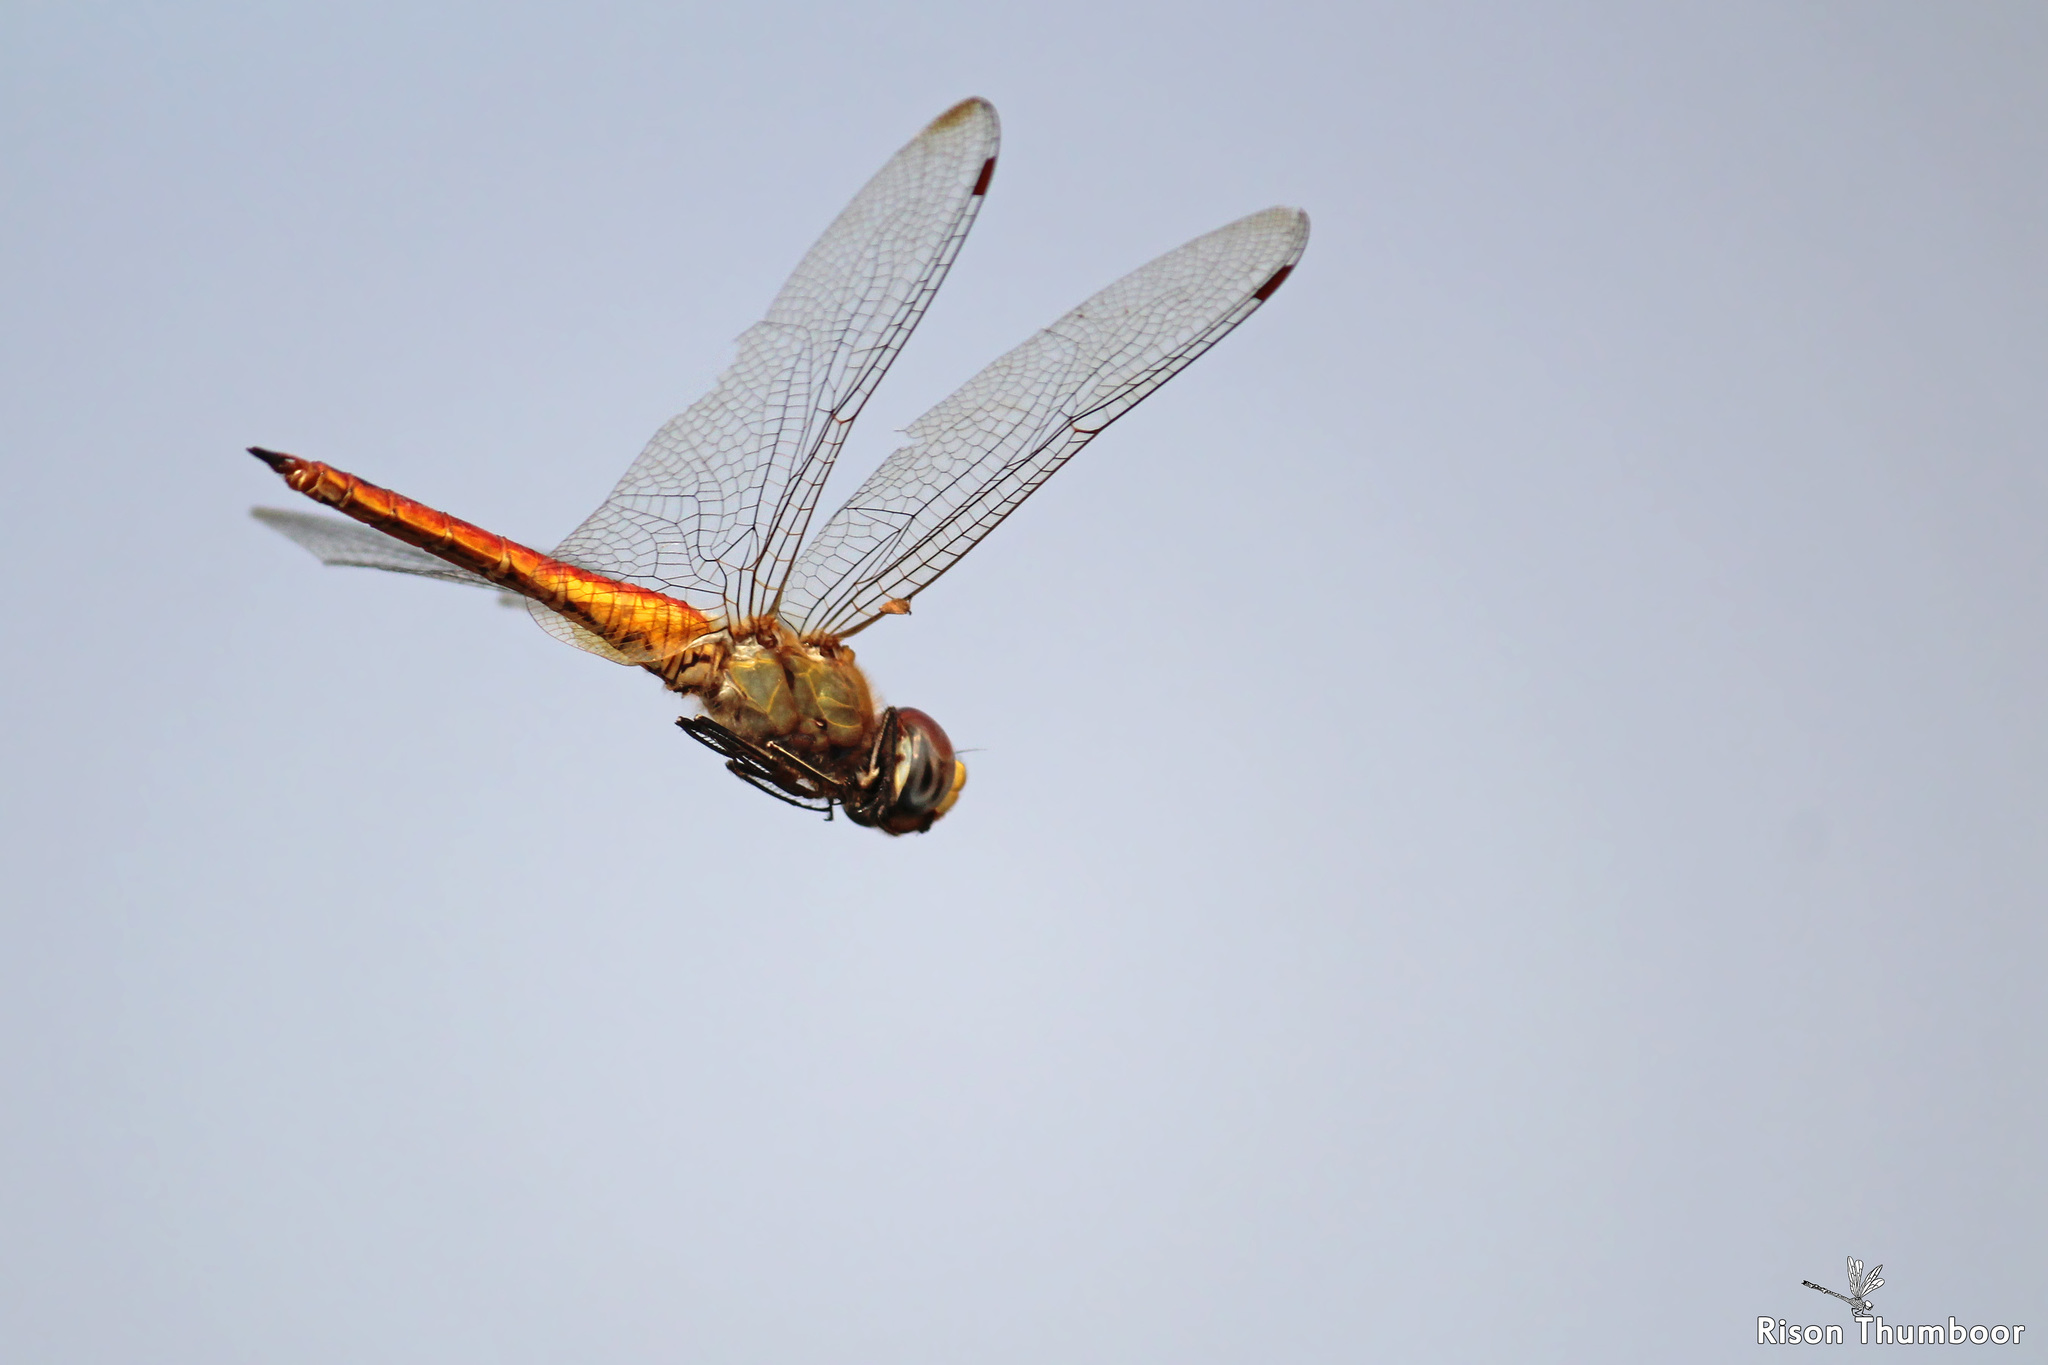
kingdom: Animalia
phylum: Arthropoda
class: Insecta
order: Odonata
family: Libellulidae
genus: Pantala
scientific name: Pantala flavescens
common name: Wandering glider
